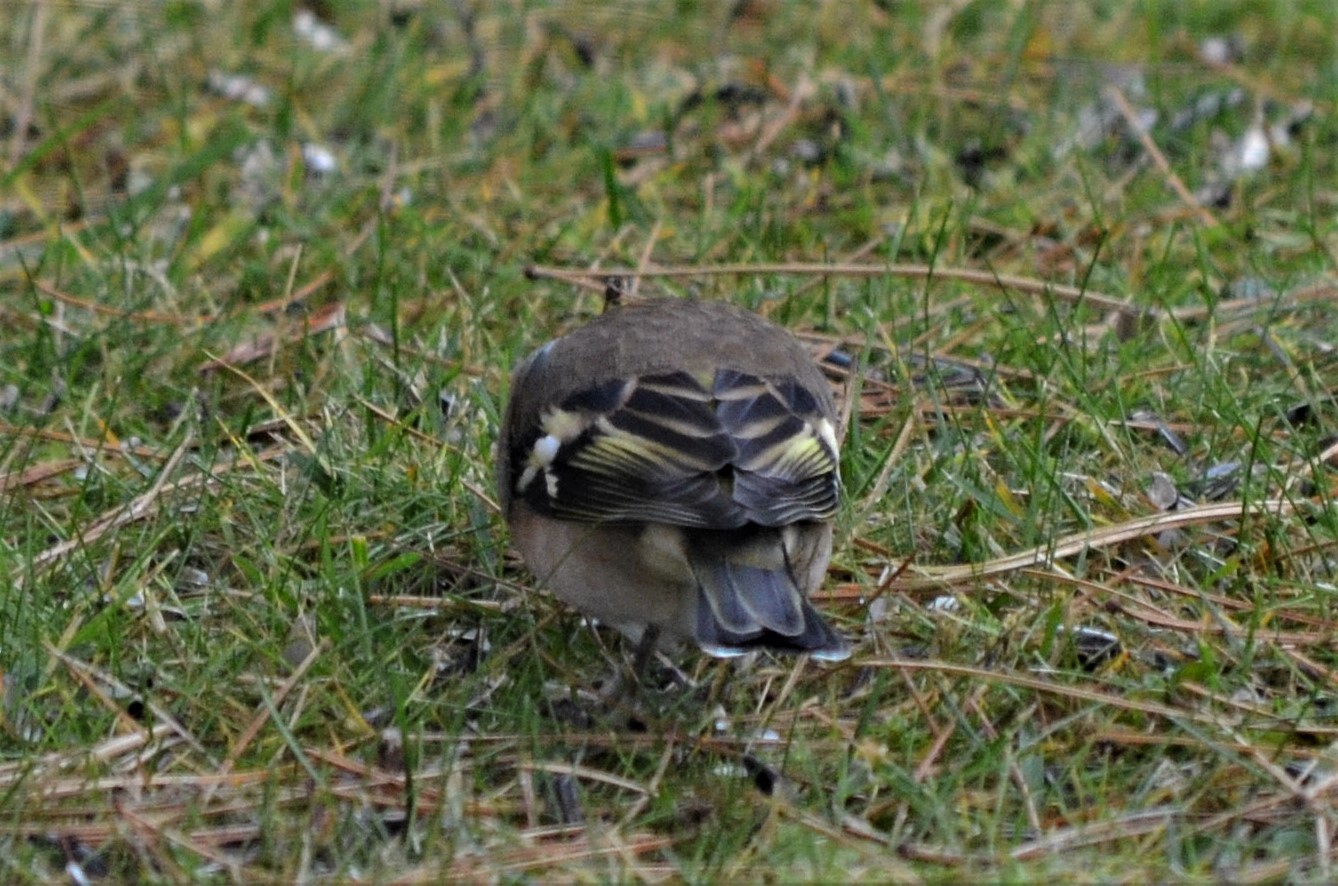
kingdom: Animalia
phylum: Chordata
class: Aves
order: Passeriformes
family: Fringillidae
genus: Fringilla
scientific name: Fringilla coelebs
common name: Common chaffinch
